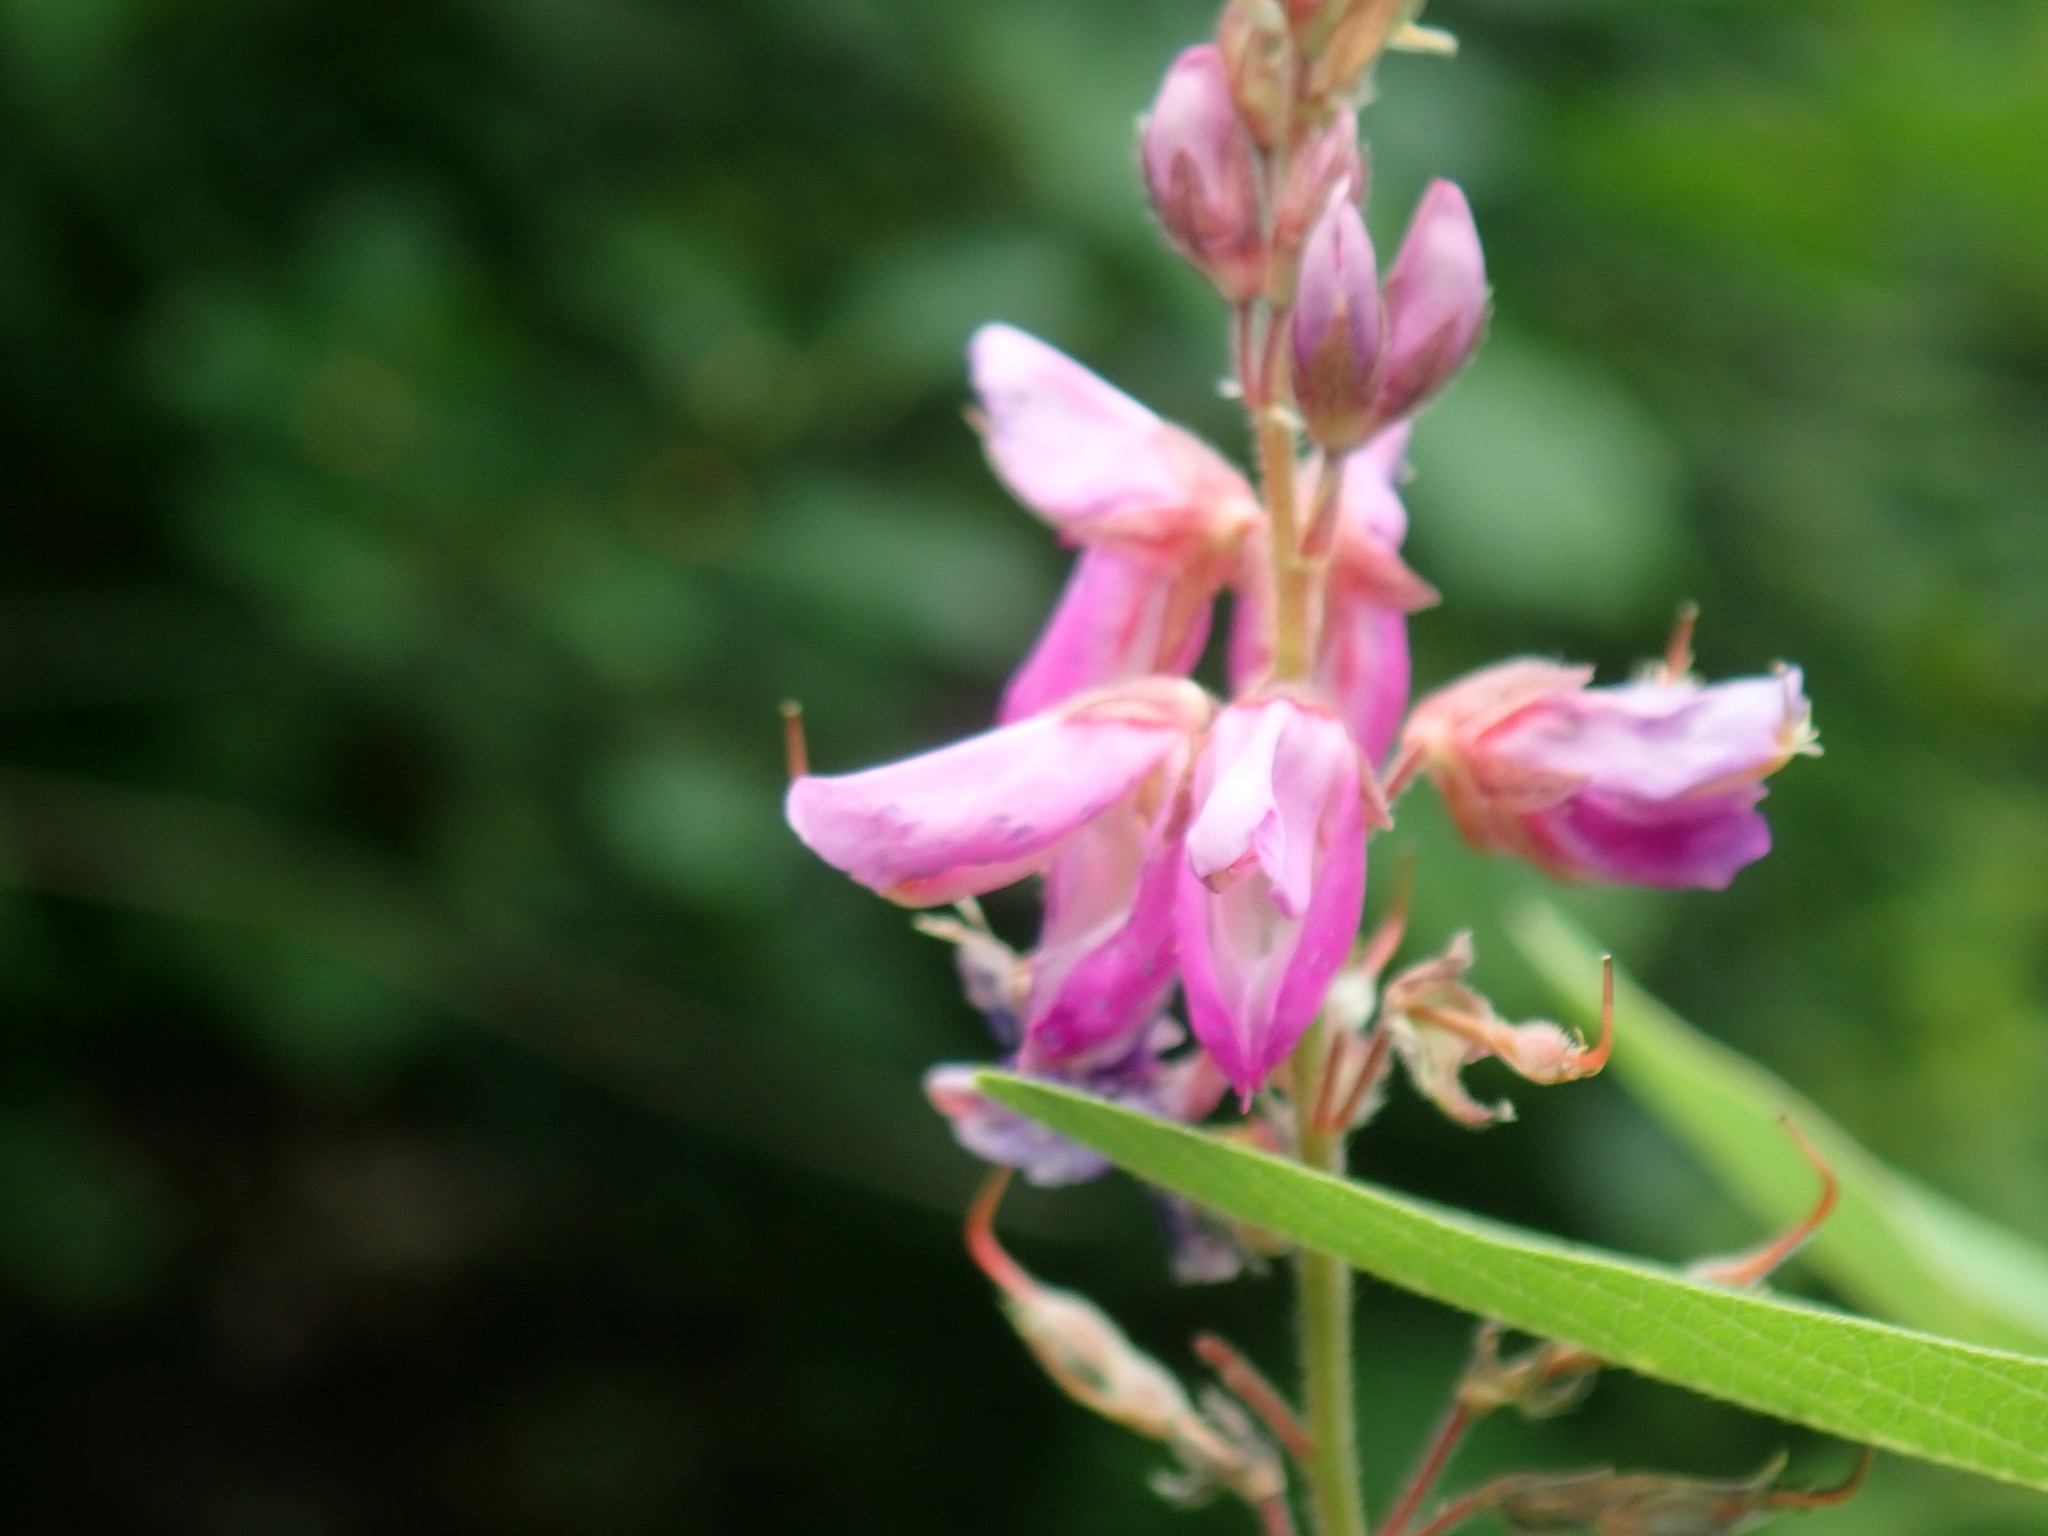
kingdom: Plantae
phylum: Tracheophyta
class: Magnoliopsida
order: Fabales
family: Fabaceae
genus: Desmodium
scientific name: Desmodium canadense
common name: Canada tick-trefoil
